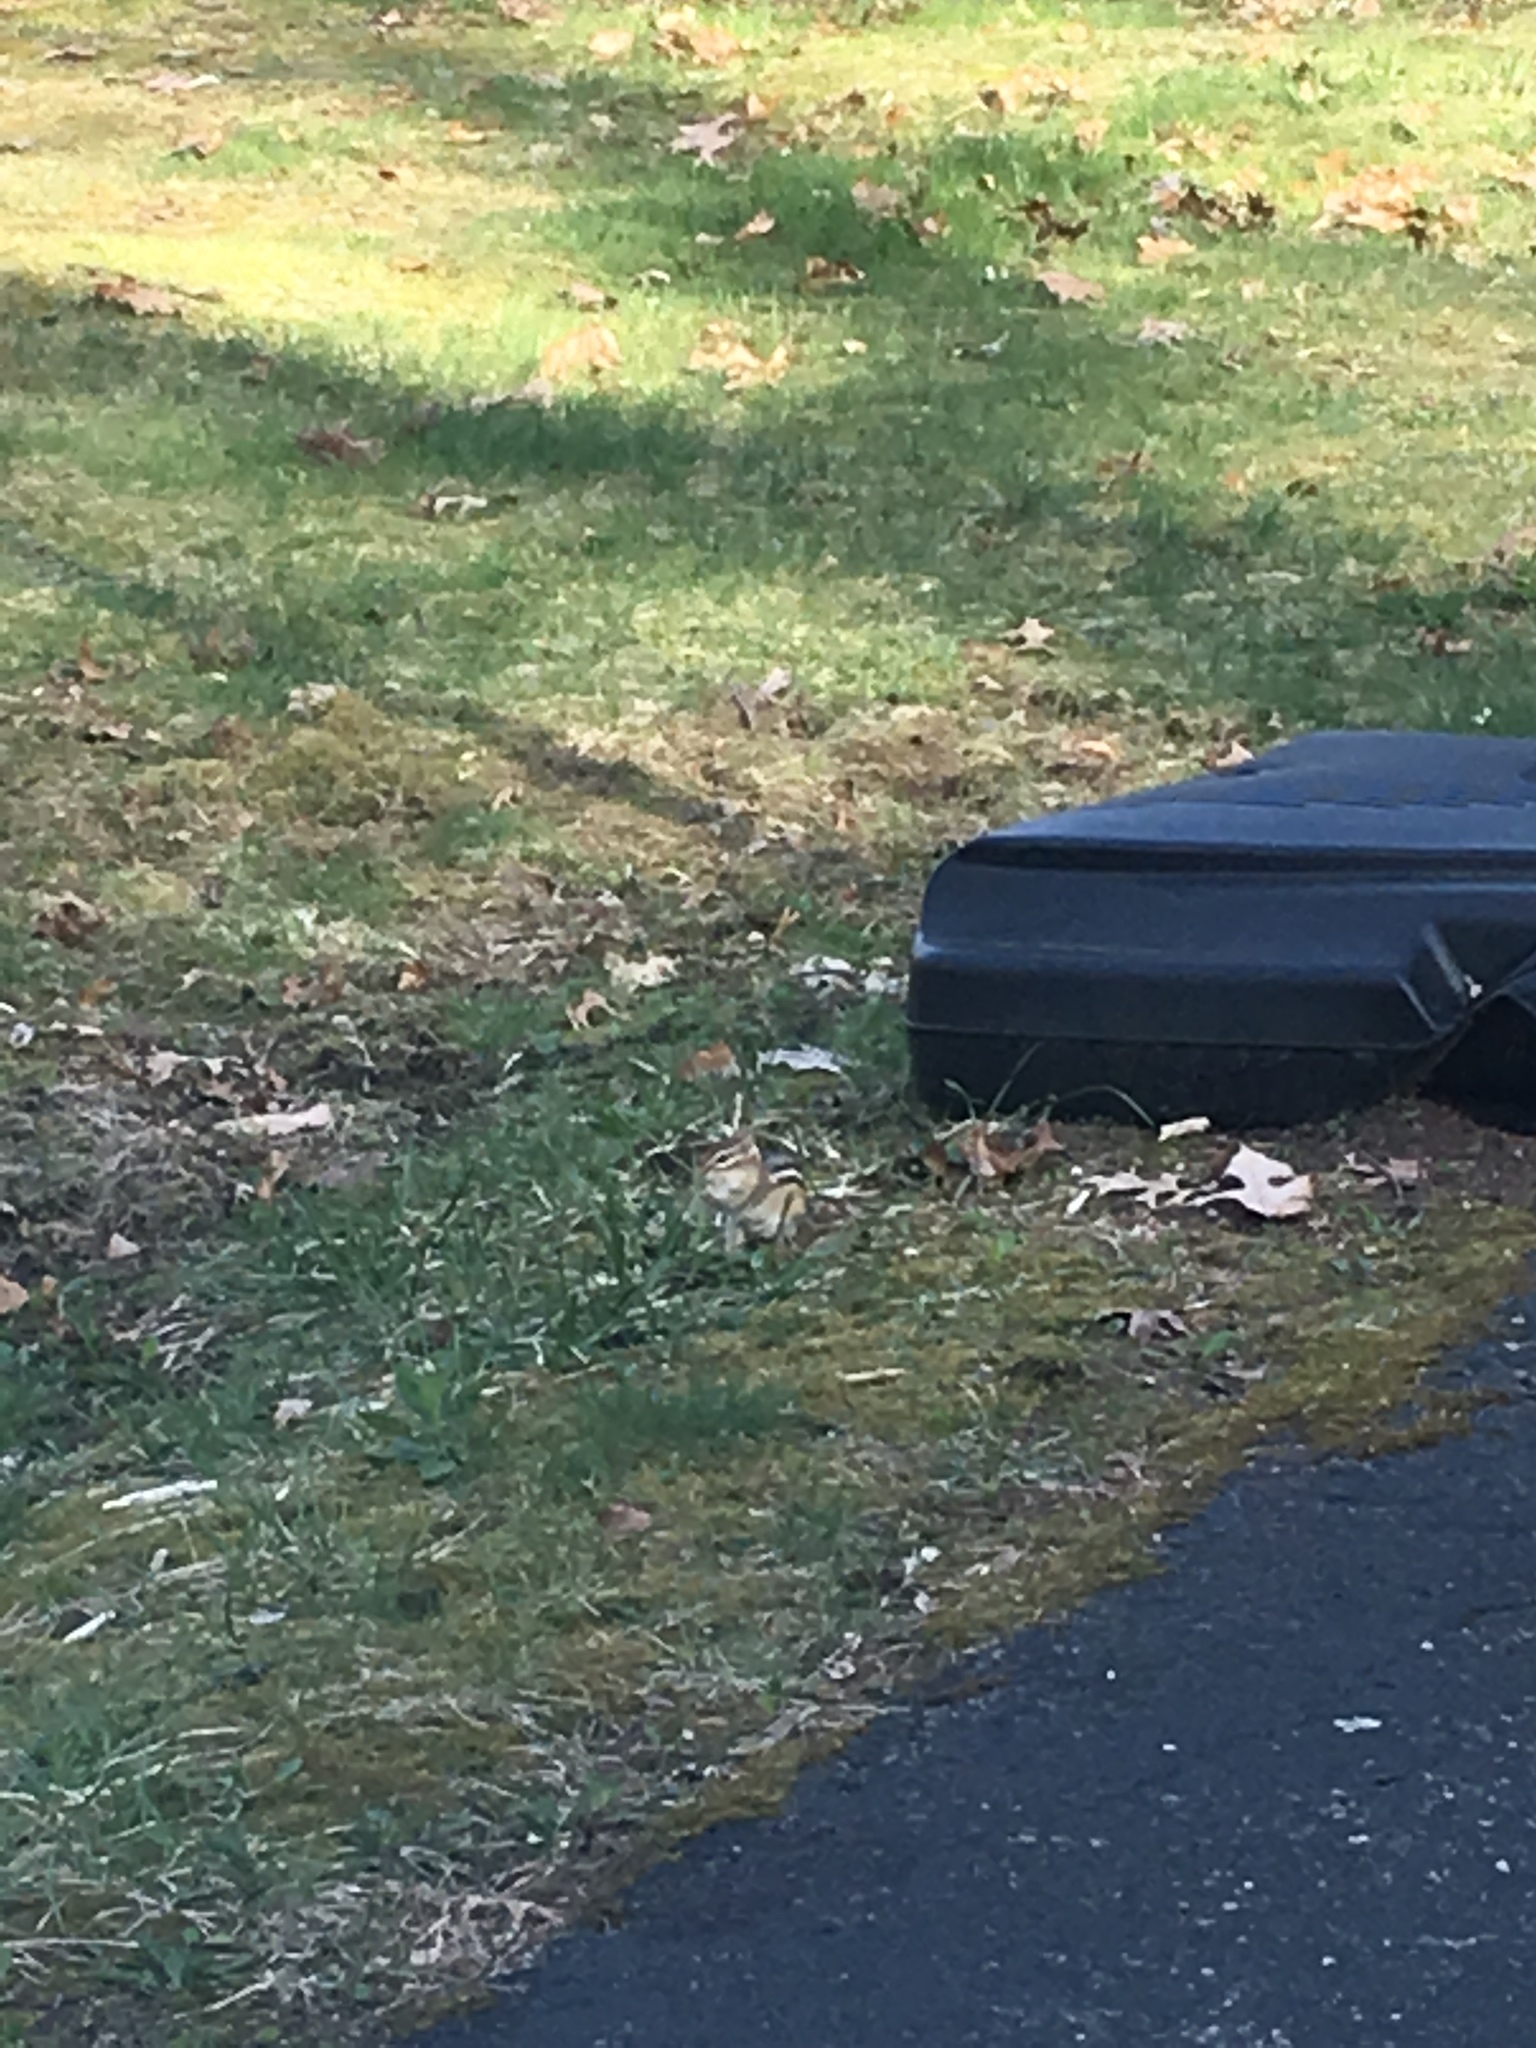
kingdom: Animalia
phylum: Chordata
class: Mammalia
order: Rodentia
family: Sciuridae
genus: Tamias
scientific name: Tamias striatus
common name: Eastern chipmunk
